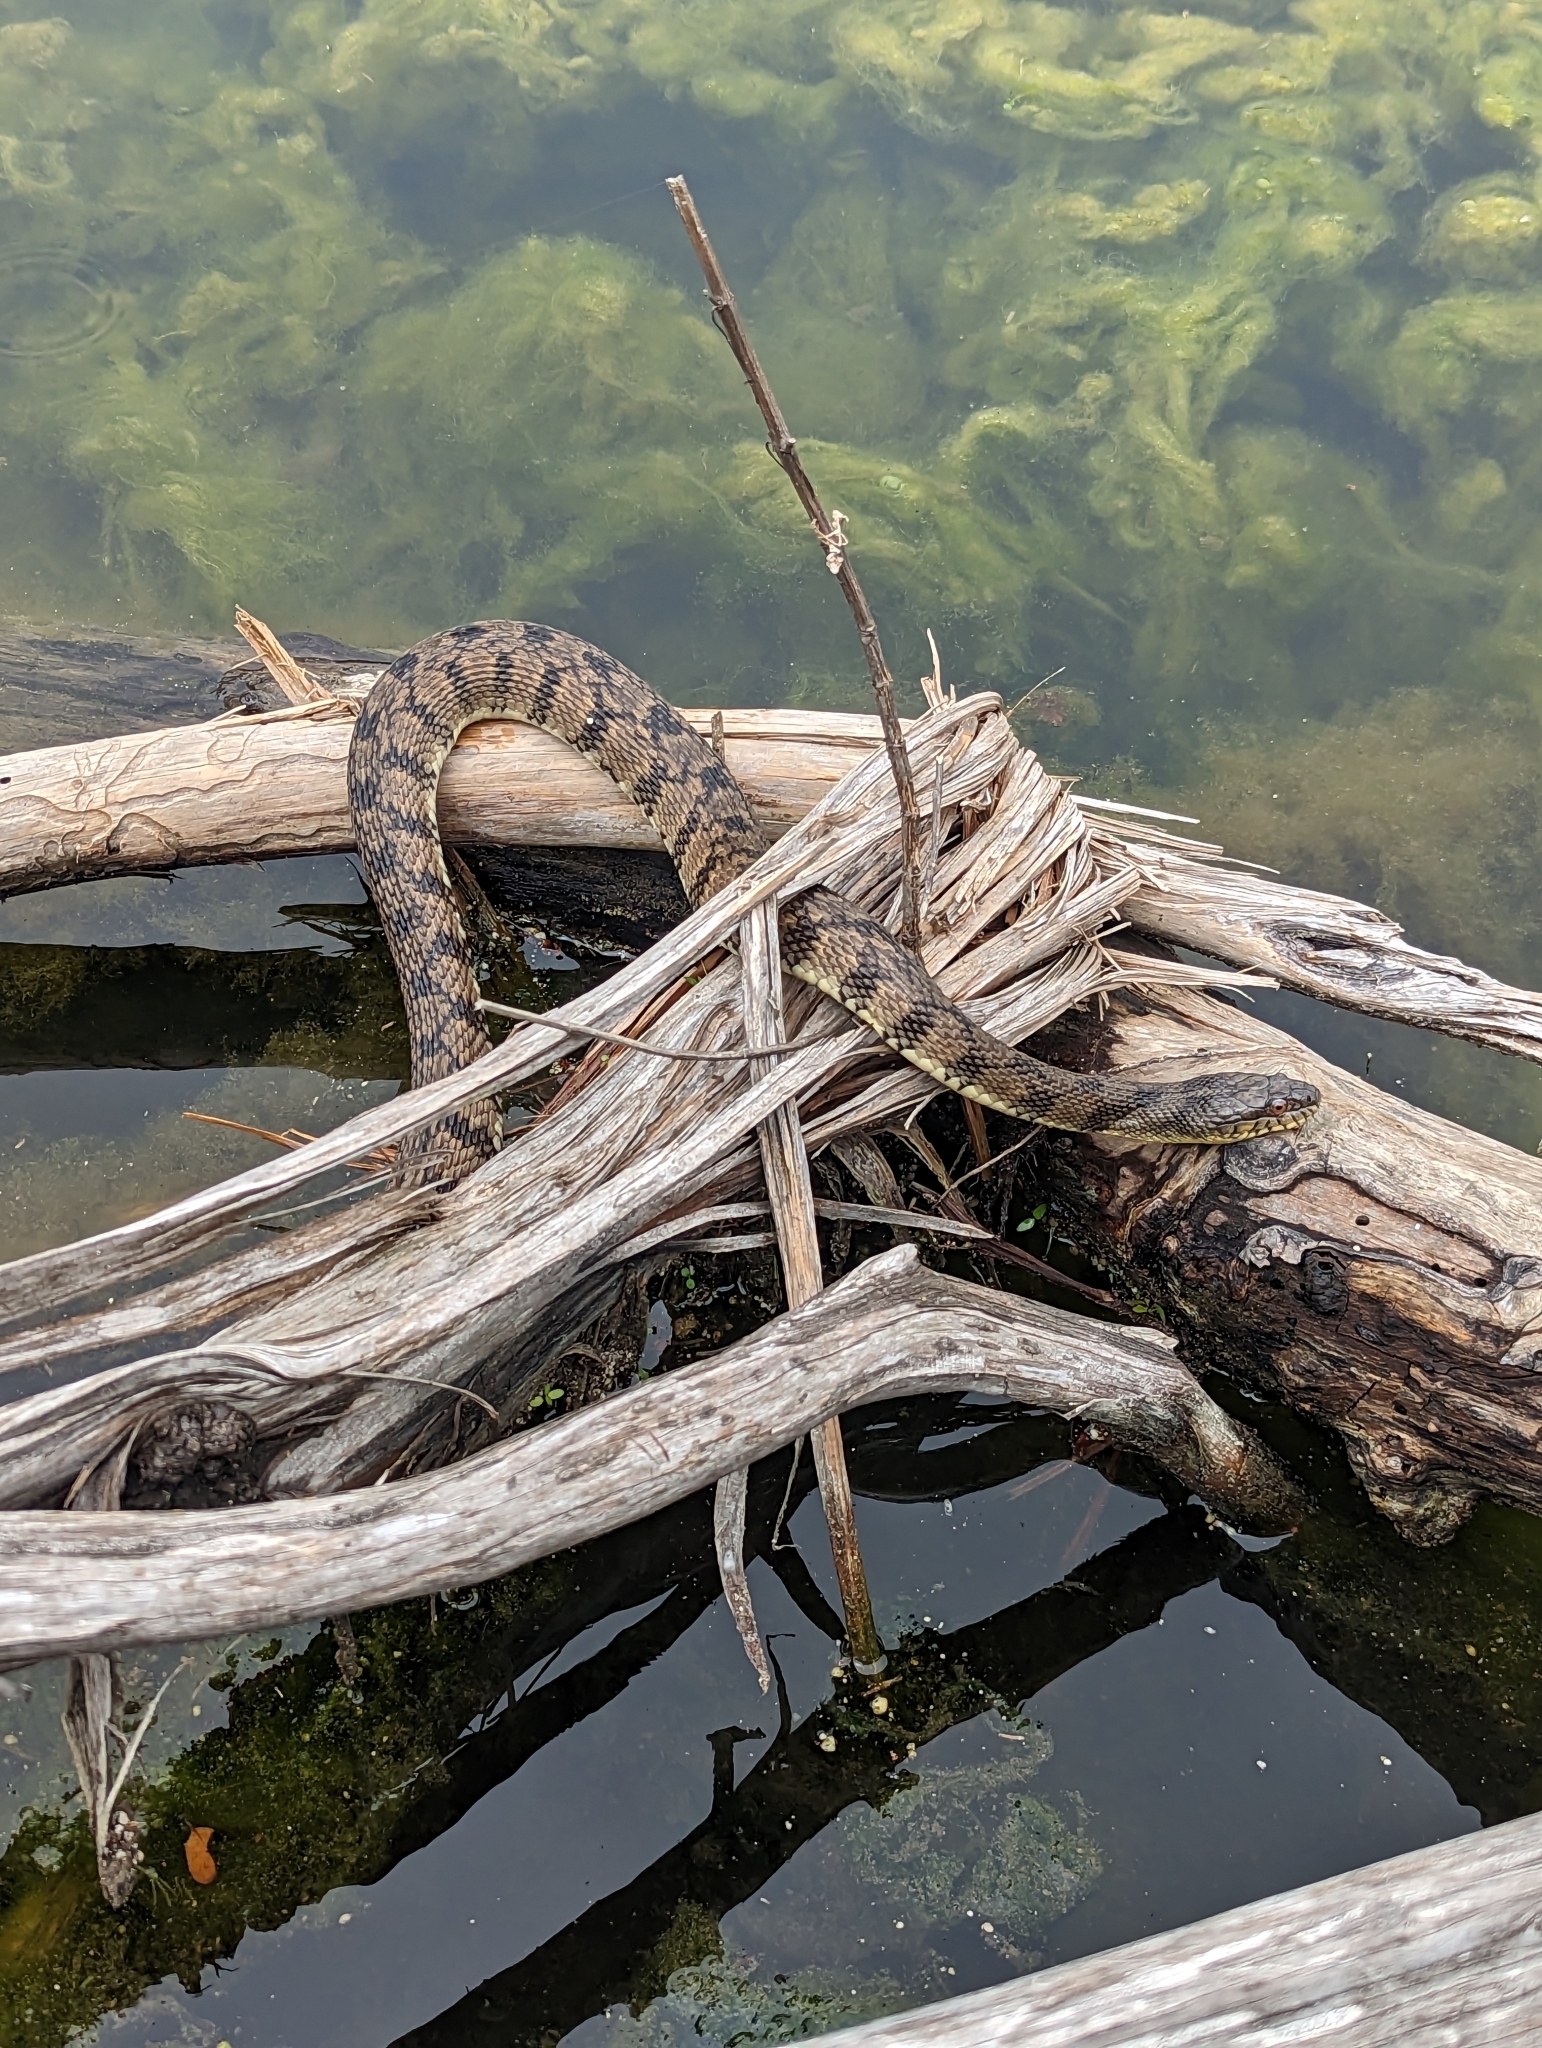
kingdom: Animalia
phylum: Chordata
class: Squamata
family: Colubridae
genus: Nerodia
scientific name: Nerodia rhombifer
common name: Diamondback water snake
